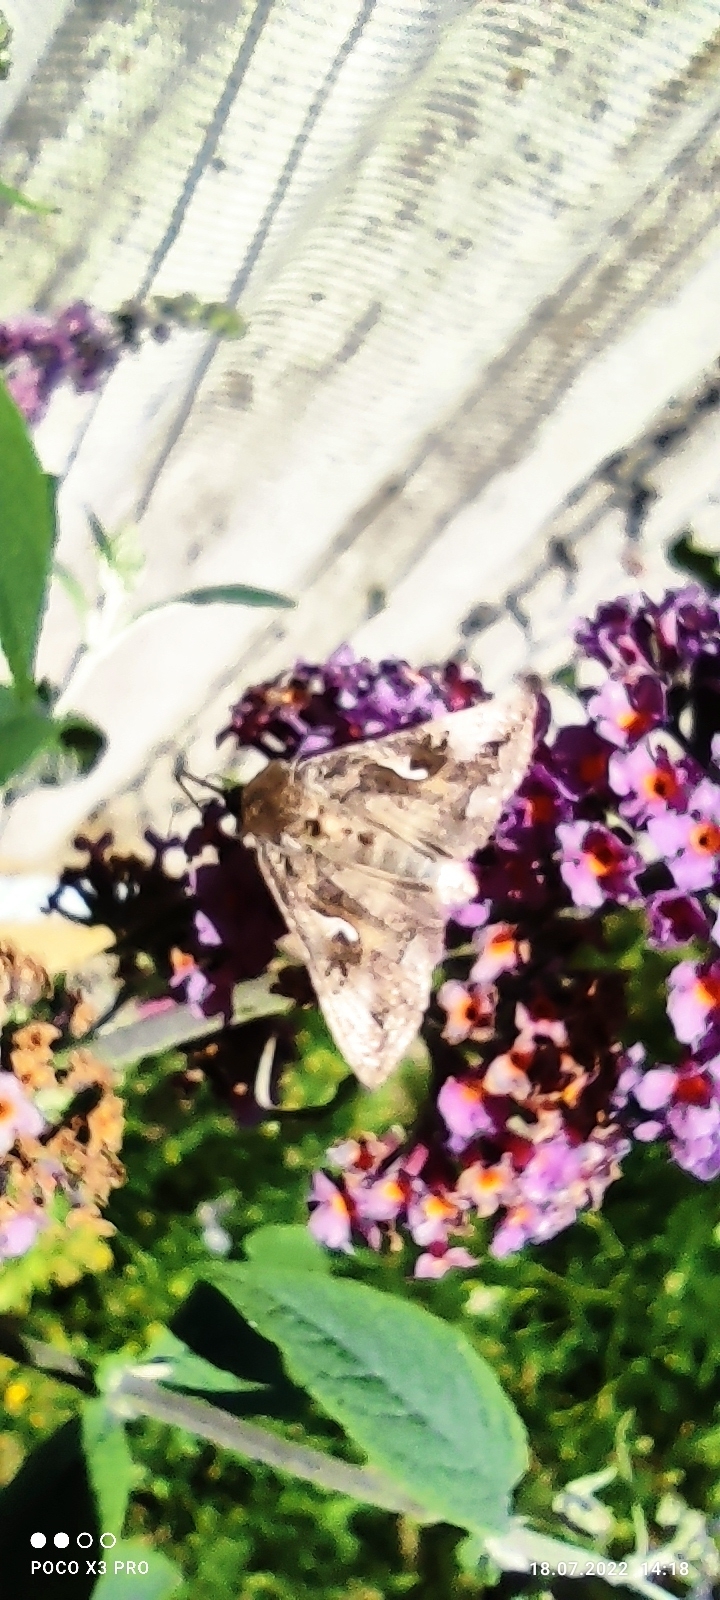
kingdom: Animalia
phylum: Arthropoda
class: Insecta
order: Lepidoptera
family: Noctuidae
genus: Autographa
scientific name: Autographa gamma
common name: Silver y
